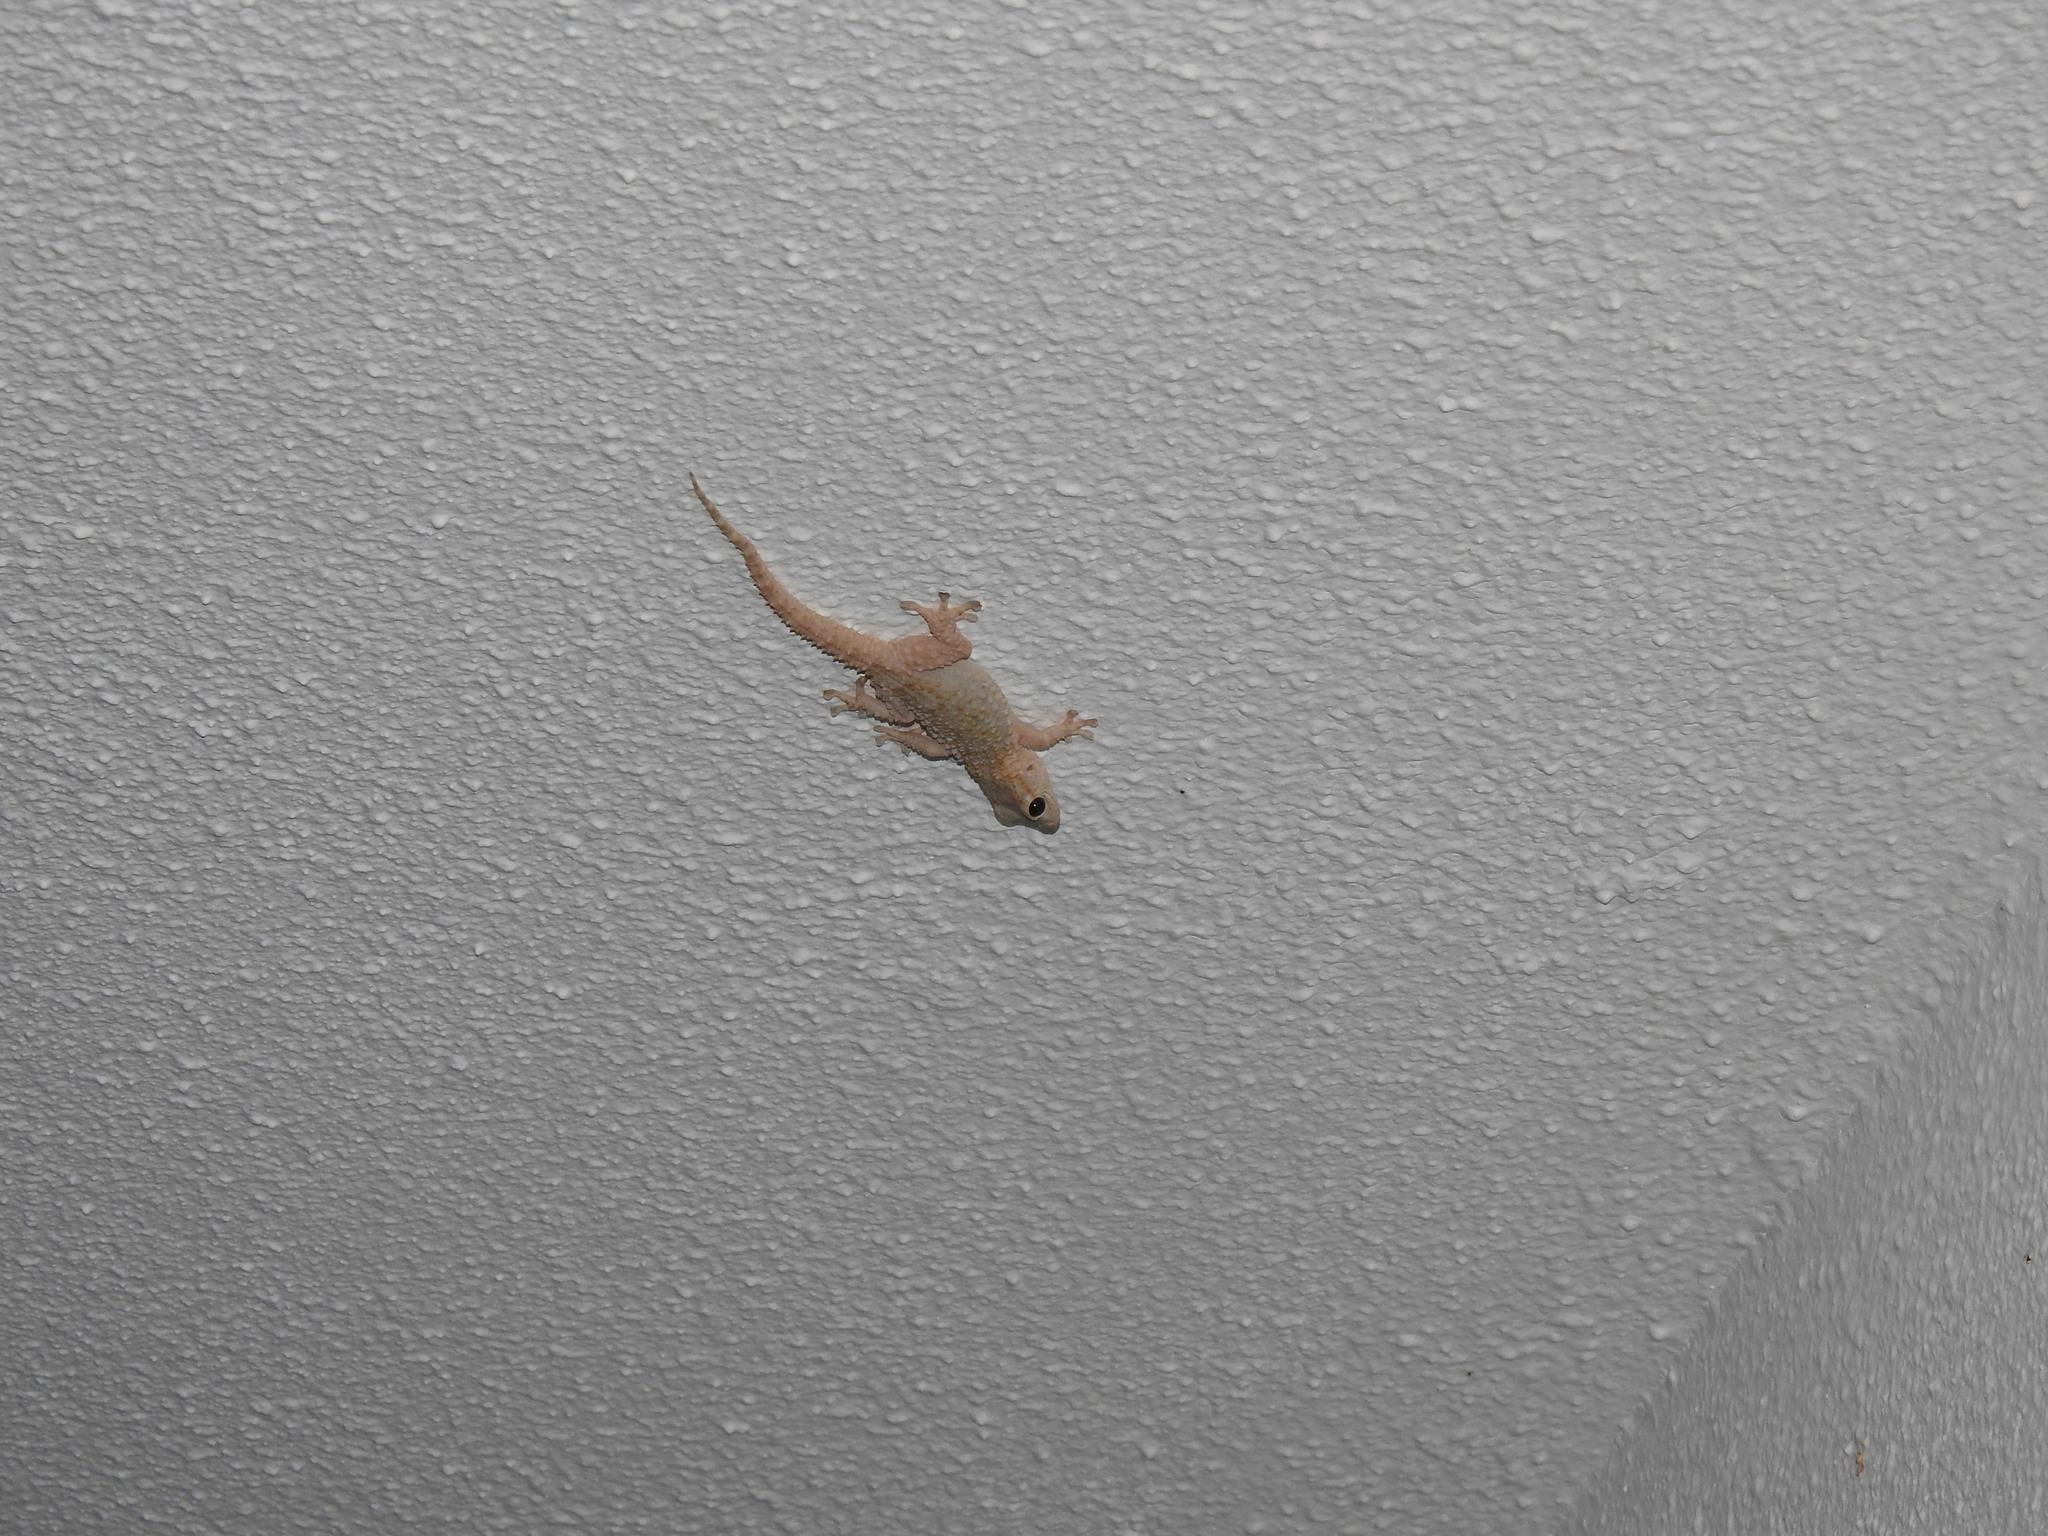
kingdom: Animalia
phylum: Chordata
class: Squamata
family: Phyllodactylidae
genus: Tarentola
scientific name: Tarentola mauritanica
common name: Moorish gecko
